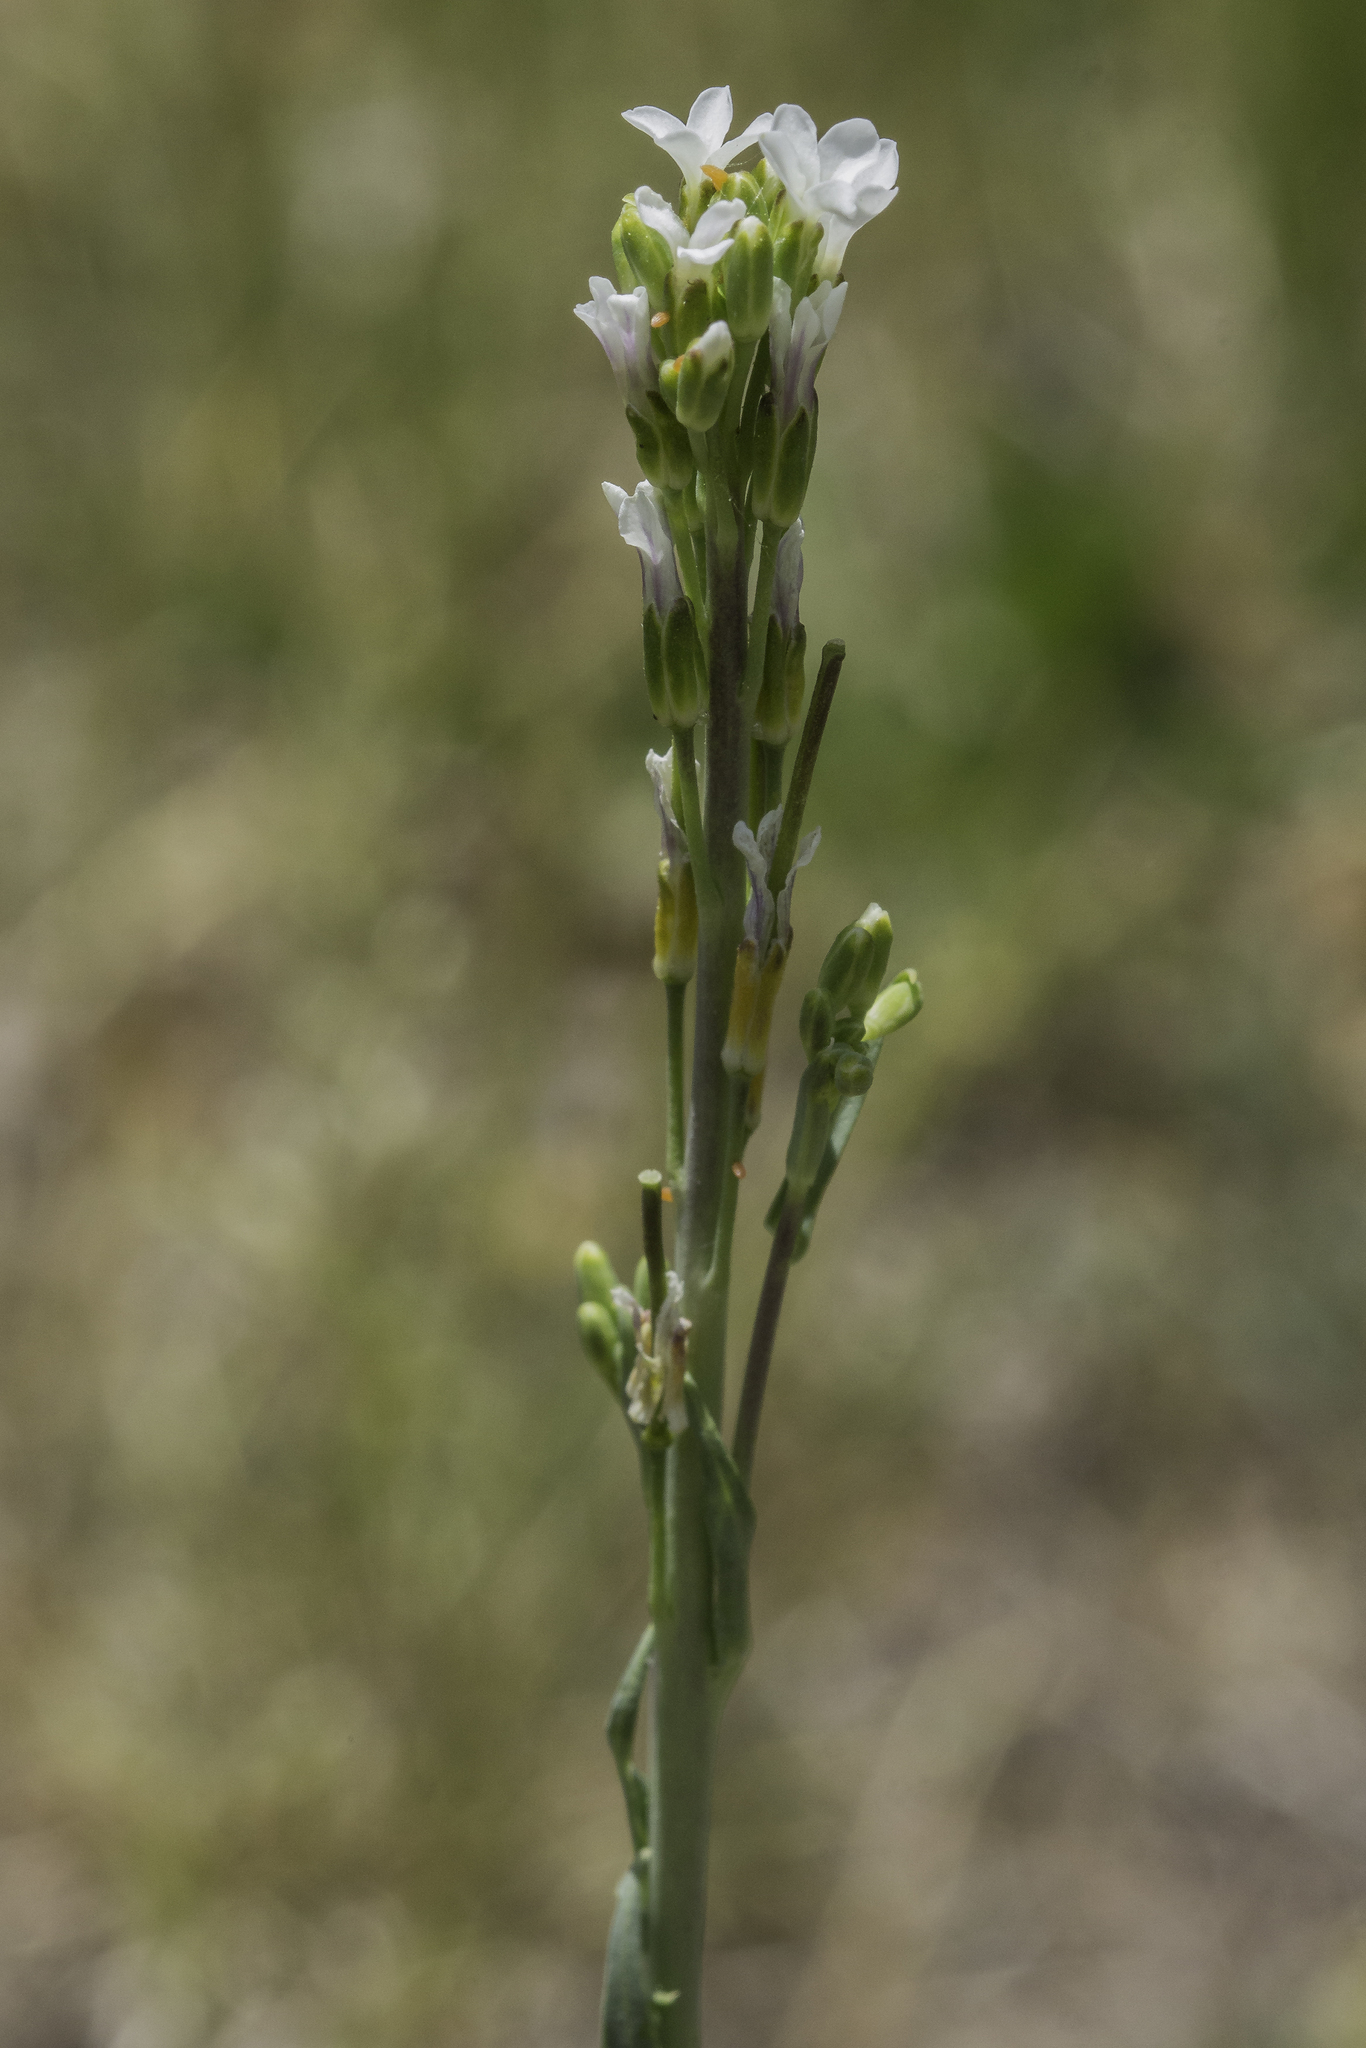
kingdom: Plantae
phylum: Tracheophyta
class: Magnoliopsida
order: Brassicales
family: Brassicaceae
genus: Boechera
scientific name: Boechera stricta
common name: Canadian rockcress
